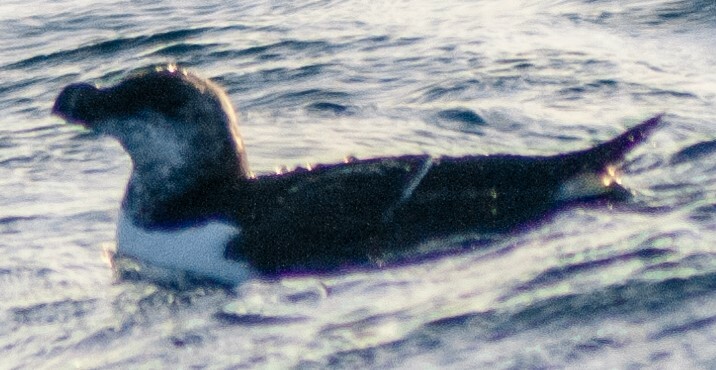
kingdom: Animalia
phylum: Chordata
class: Aves
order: Charadriiformes
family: Alcidae
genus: Alca
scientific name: Alca torda
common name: Razorbill
